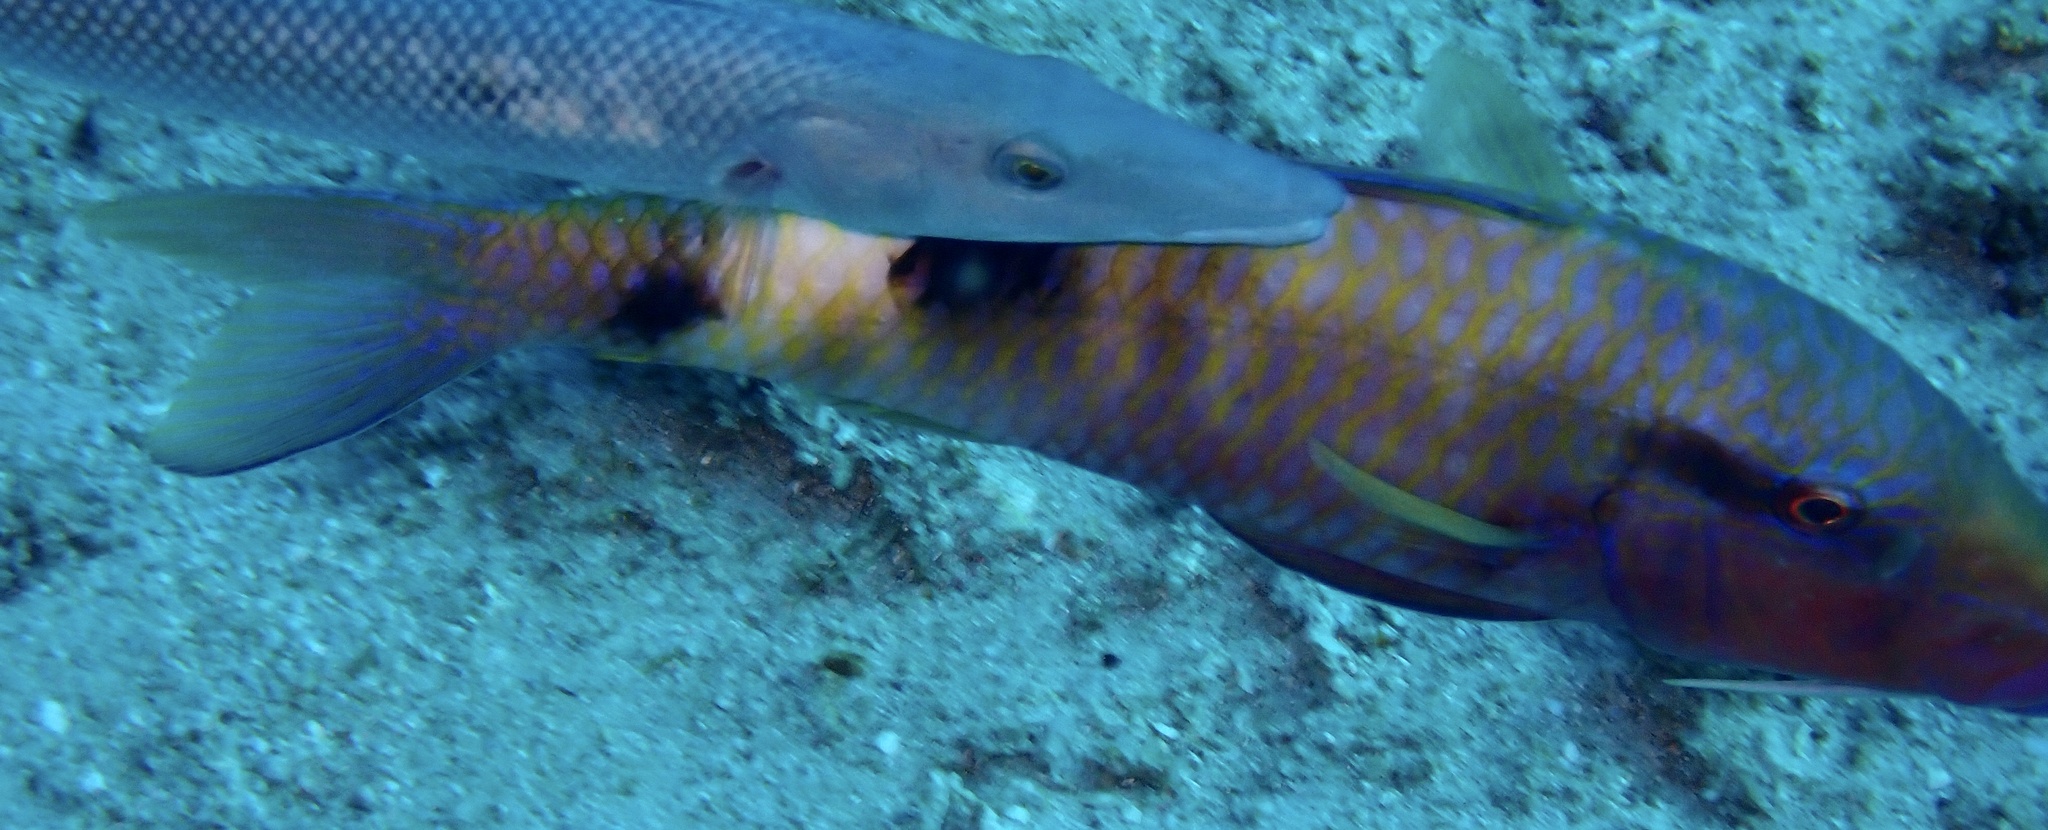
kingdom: Animalia
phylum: Chordata
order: Perciformes
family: Mullidae
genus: Parupeneus
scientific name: Parupeneus multifasciatus
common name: Manybar goatfish
